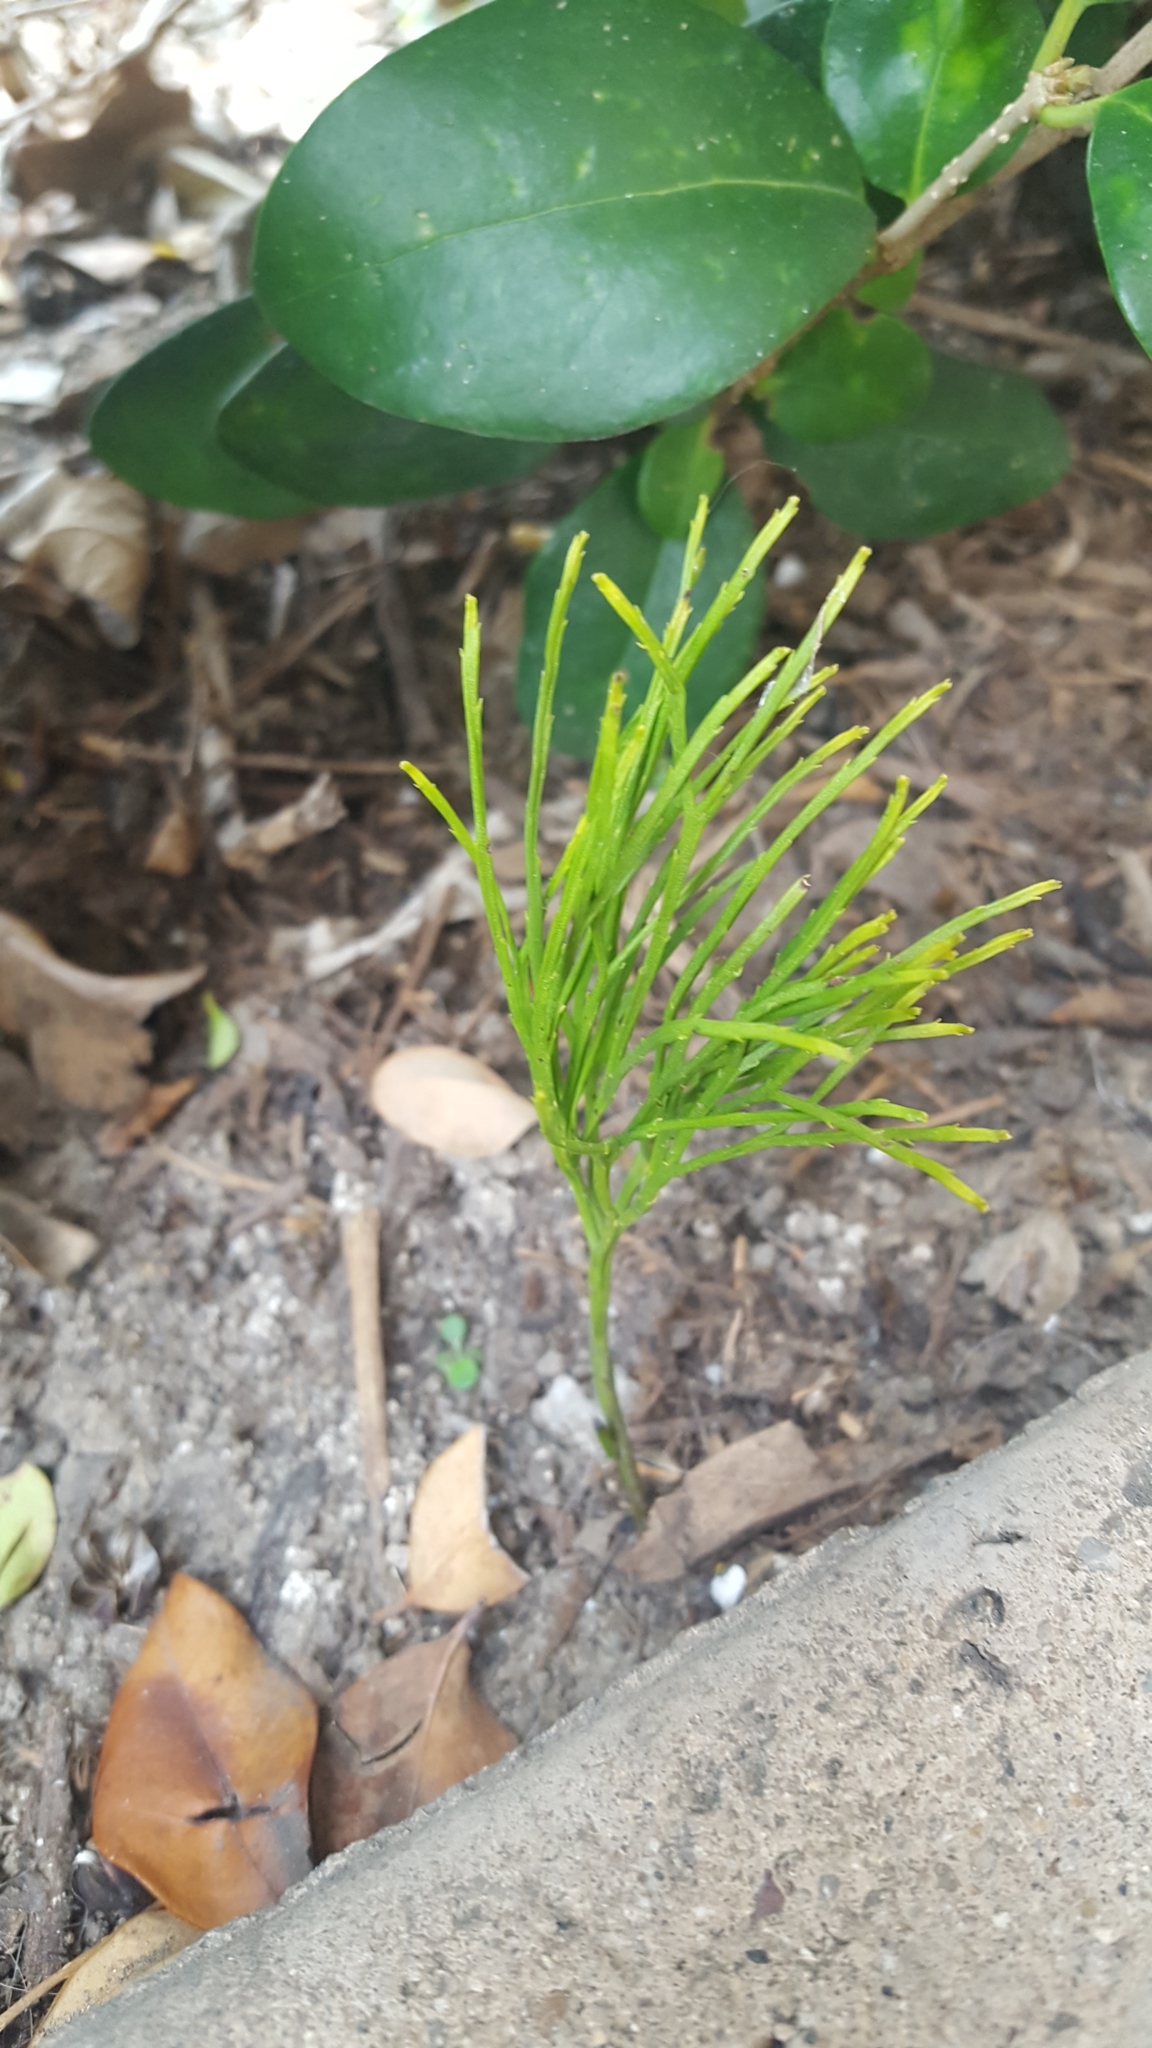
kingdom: Plantae
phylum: Tracheophyta
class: Polypodiopsida
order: Psilotales
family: Psilotaceae
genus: Psilotum
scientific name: Psilotum nudum
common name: Skeleton fork fern
